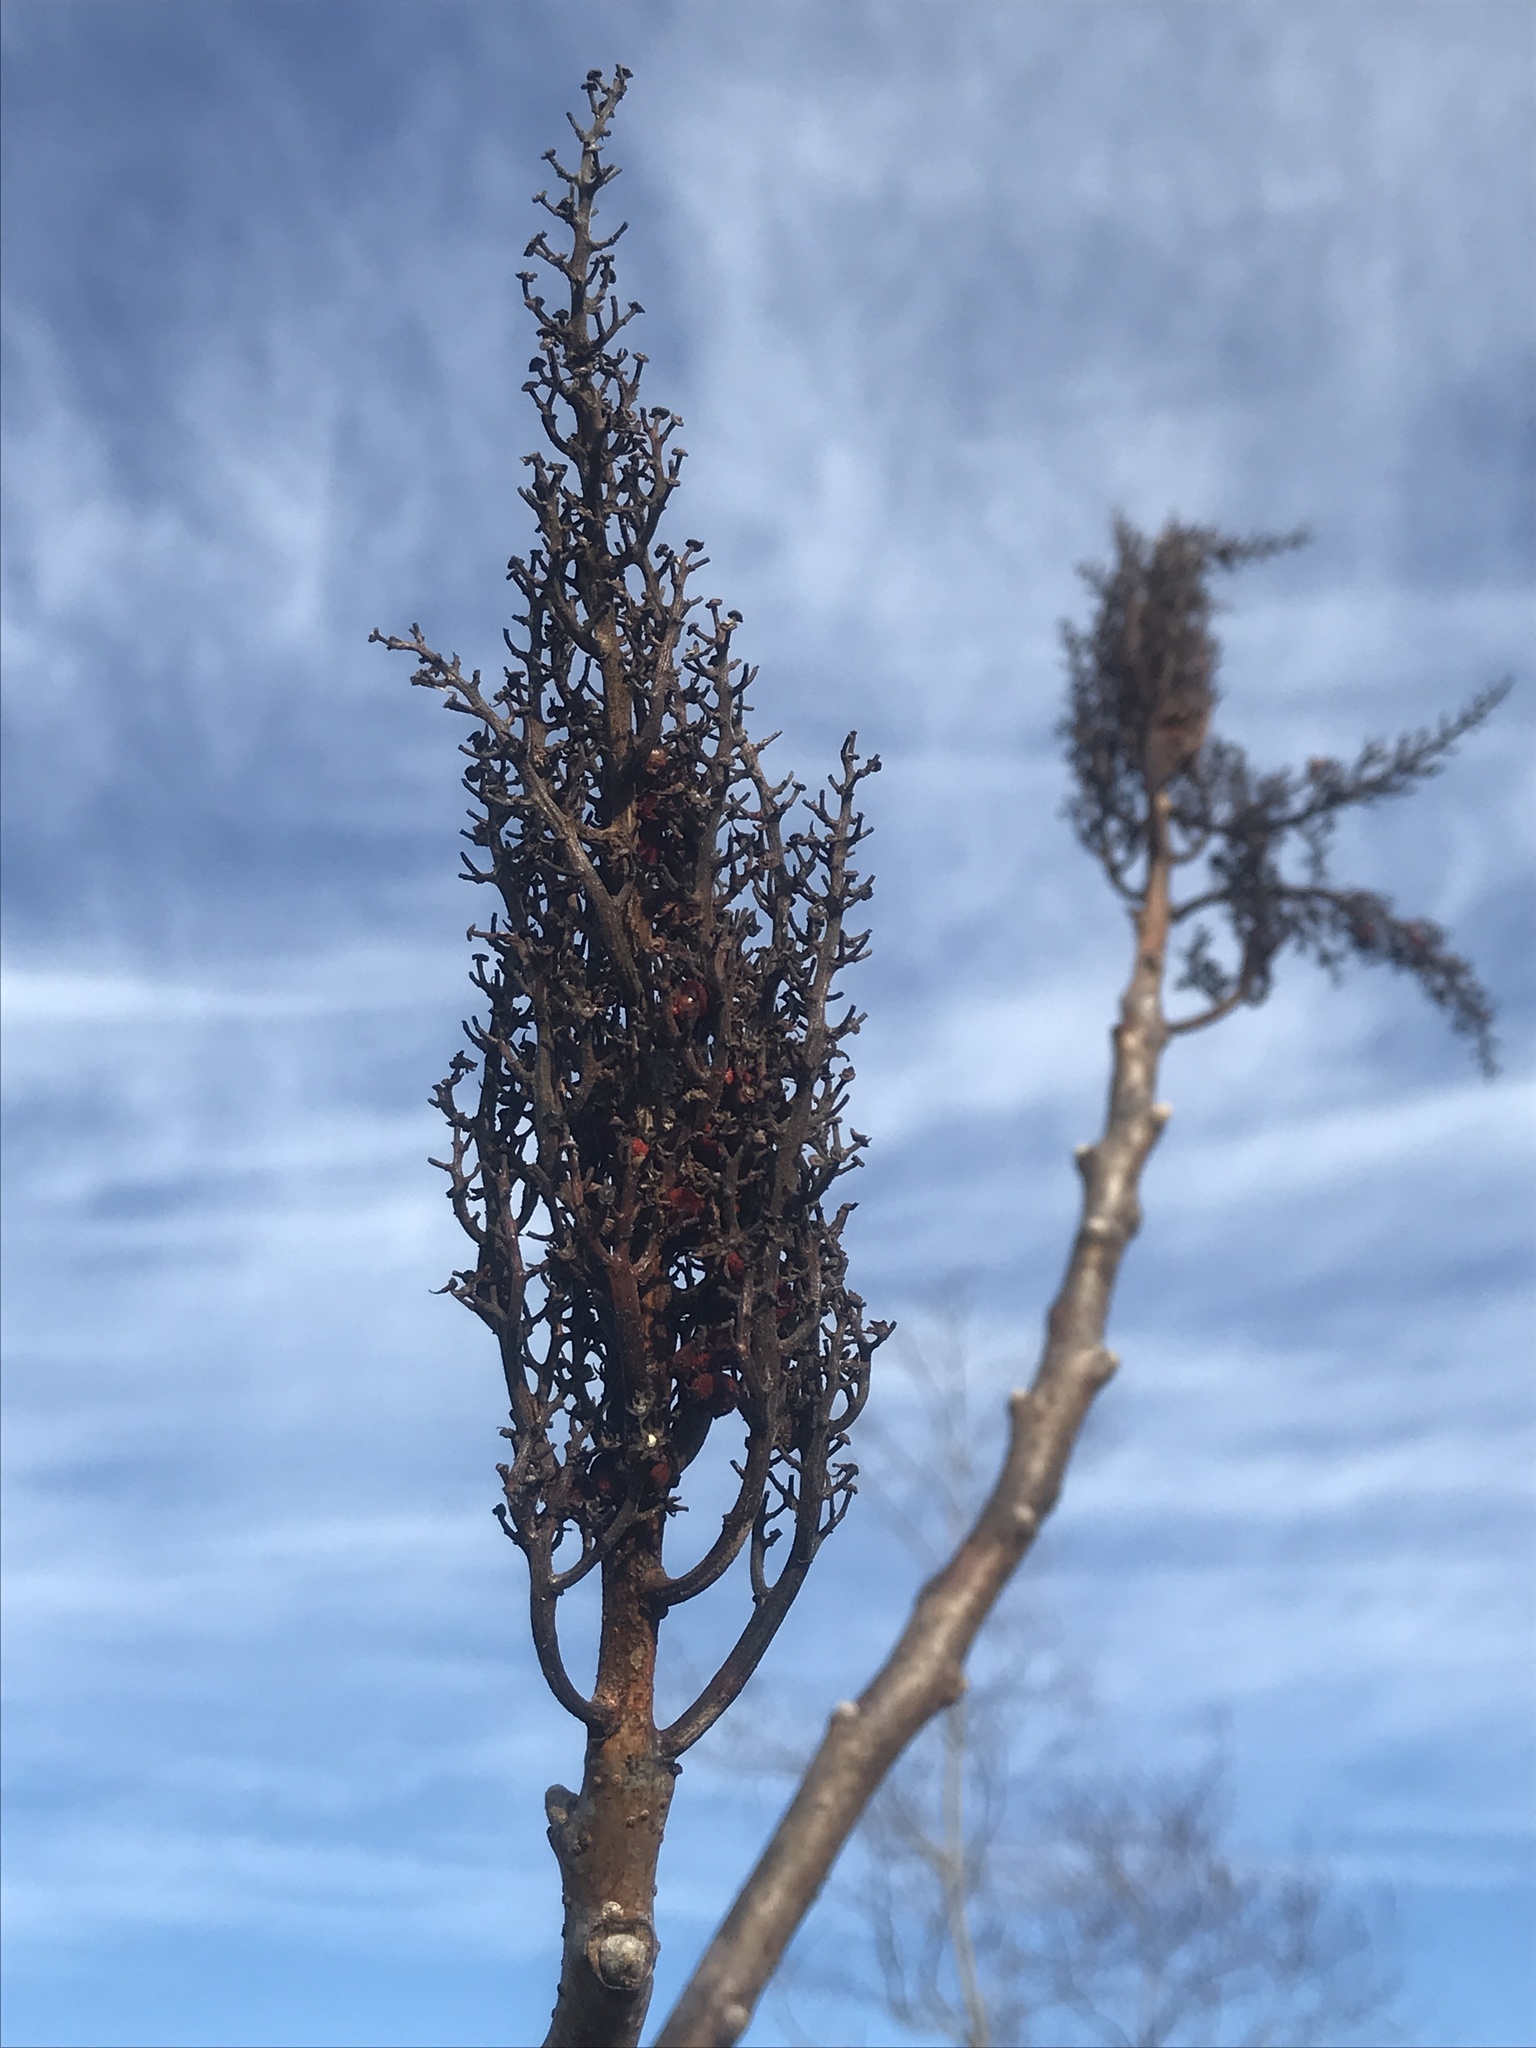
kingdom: Plantae
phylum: Tracheophyta
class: Magnoliopsida
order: Sapindales
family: Anacardiaceae
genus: Rhus
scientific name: Rhus glabra
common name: Scarlet sumac
